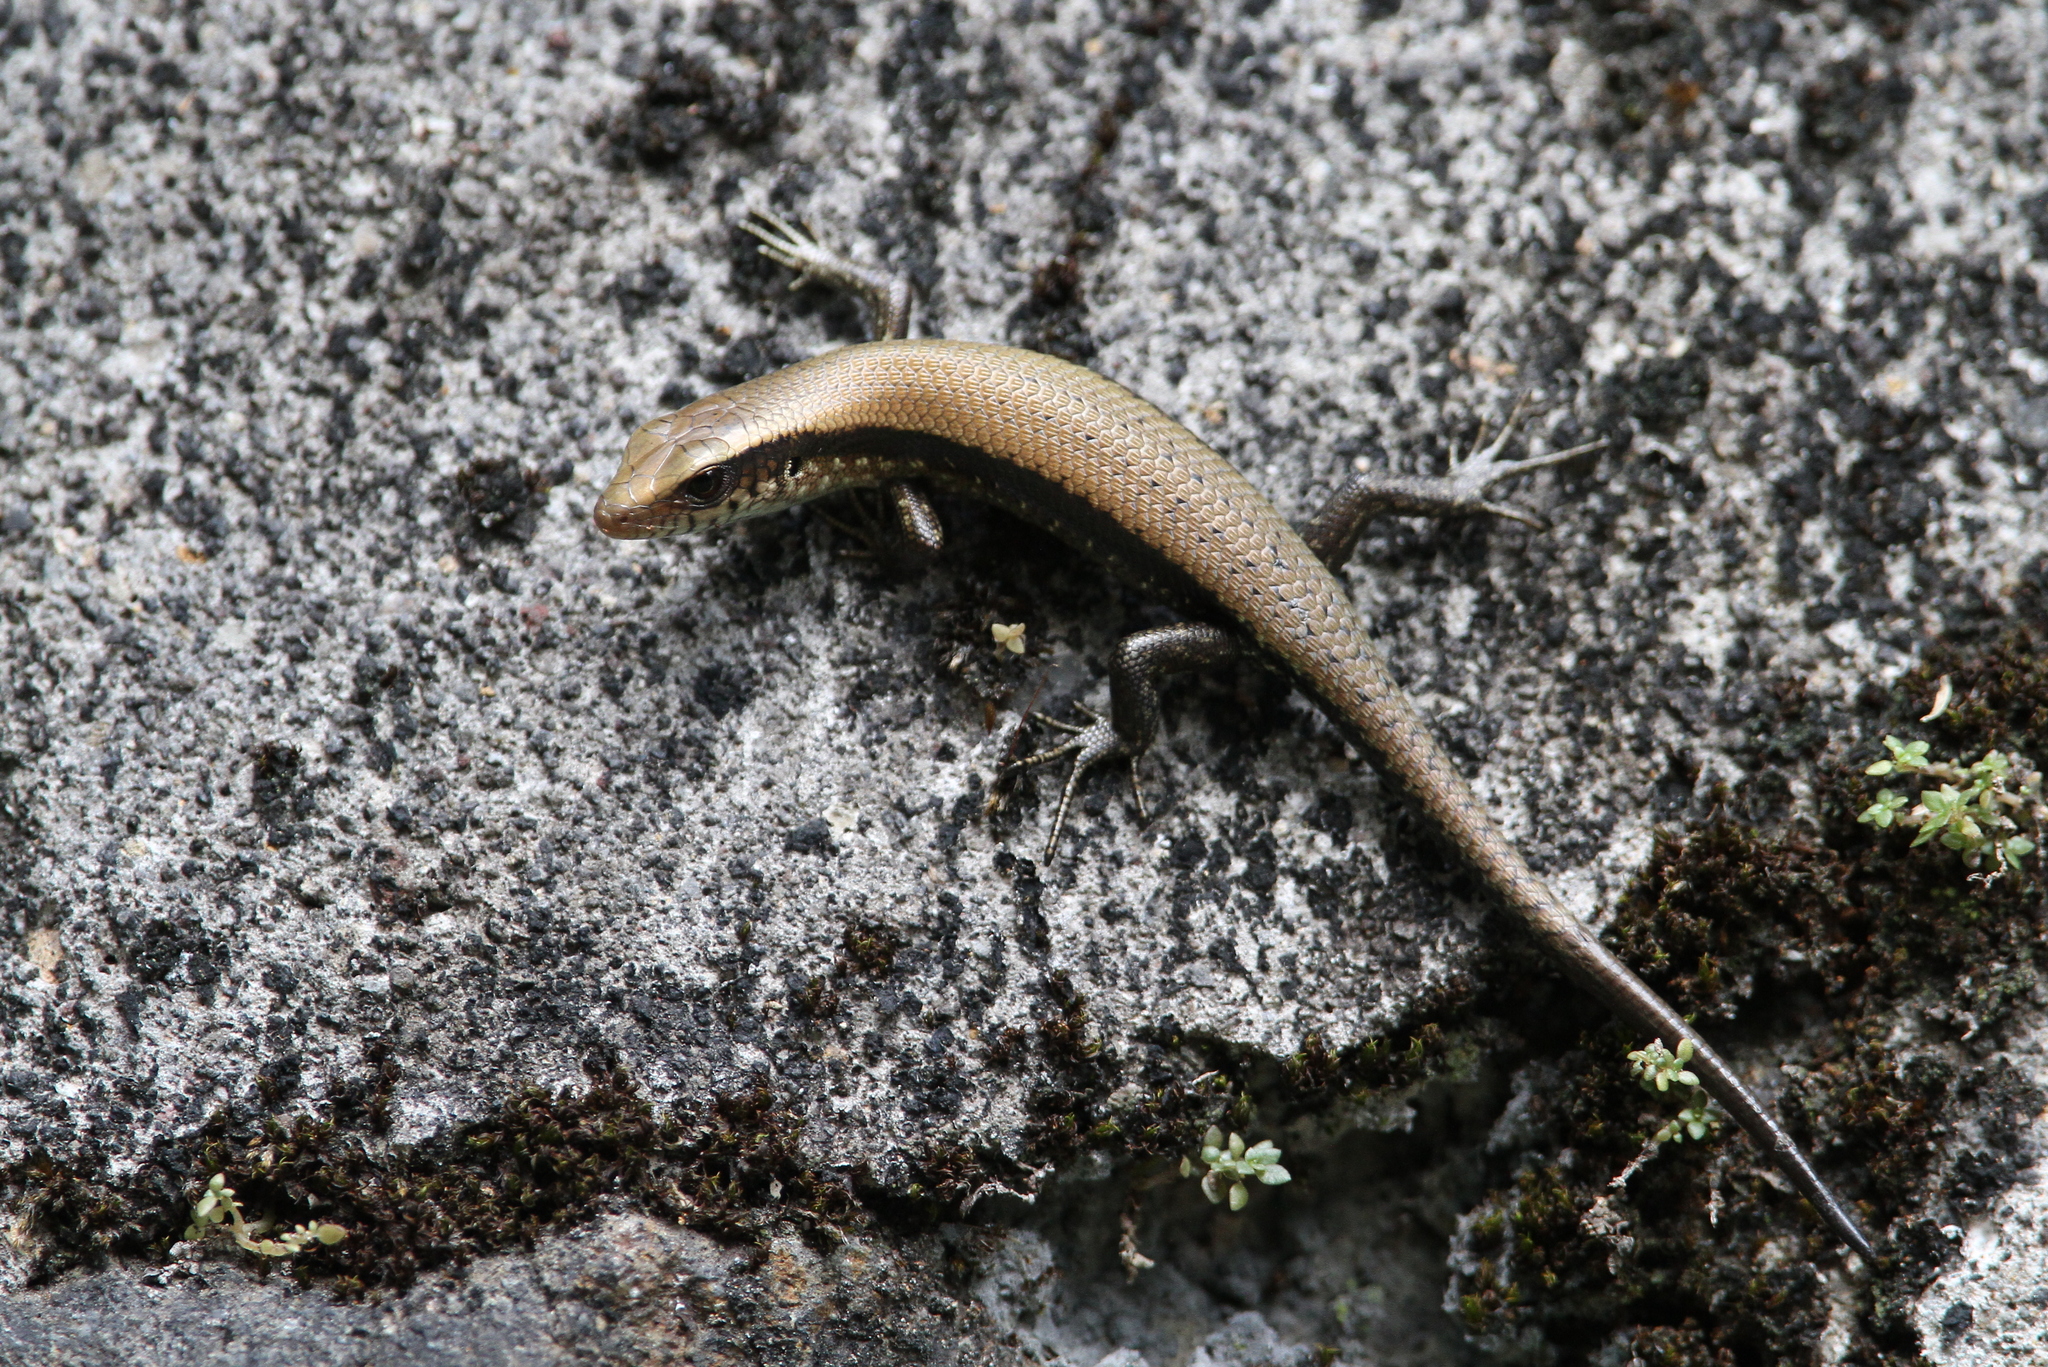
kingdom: Animalia
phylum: Chordata
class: Squamata
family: Scincidae
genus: Eutropis
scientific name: Eutropis multifasciata
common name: Common mabuya
